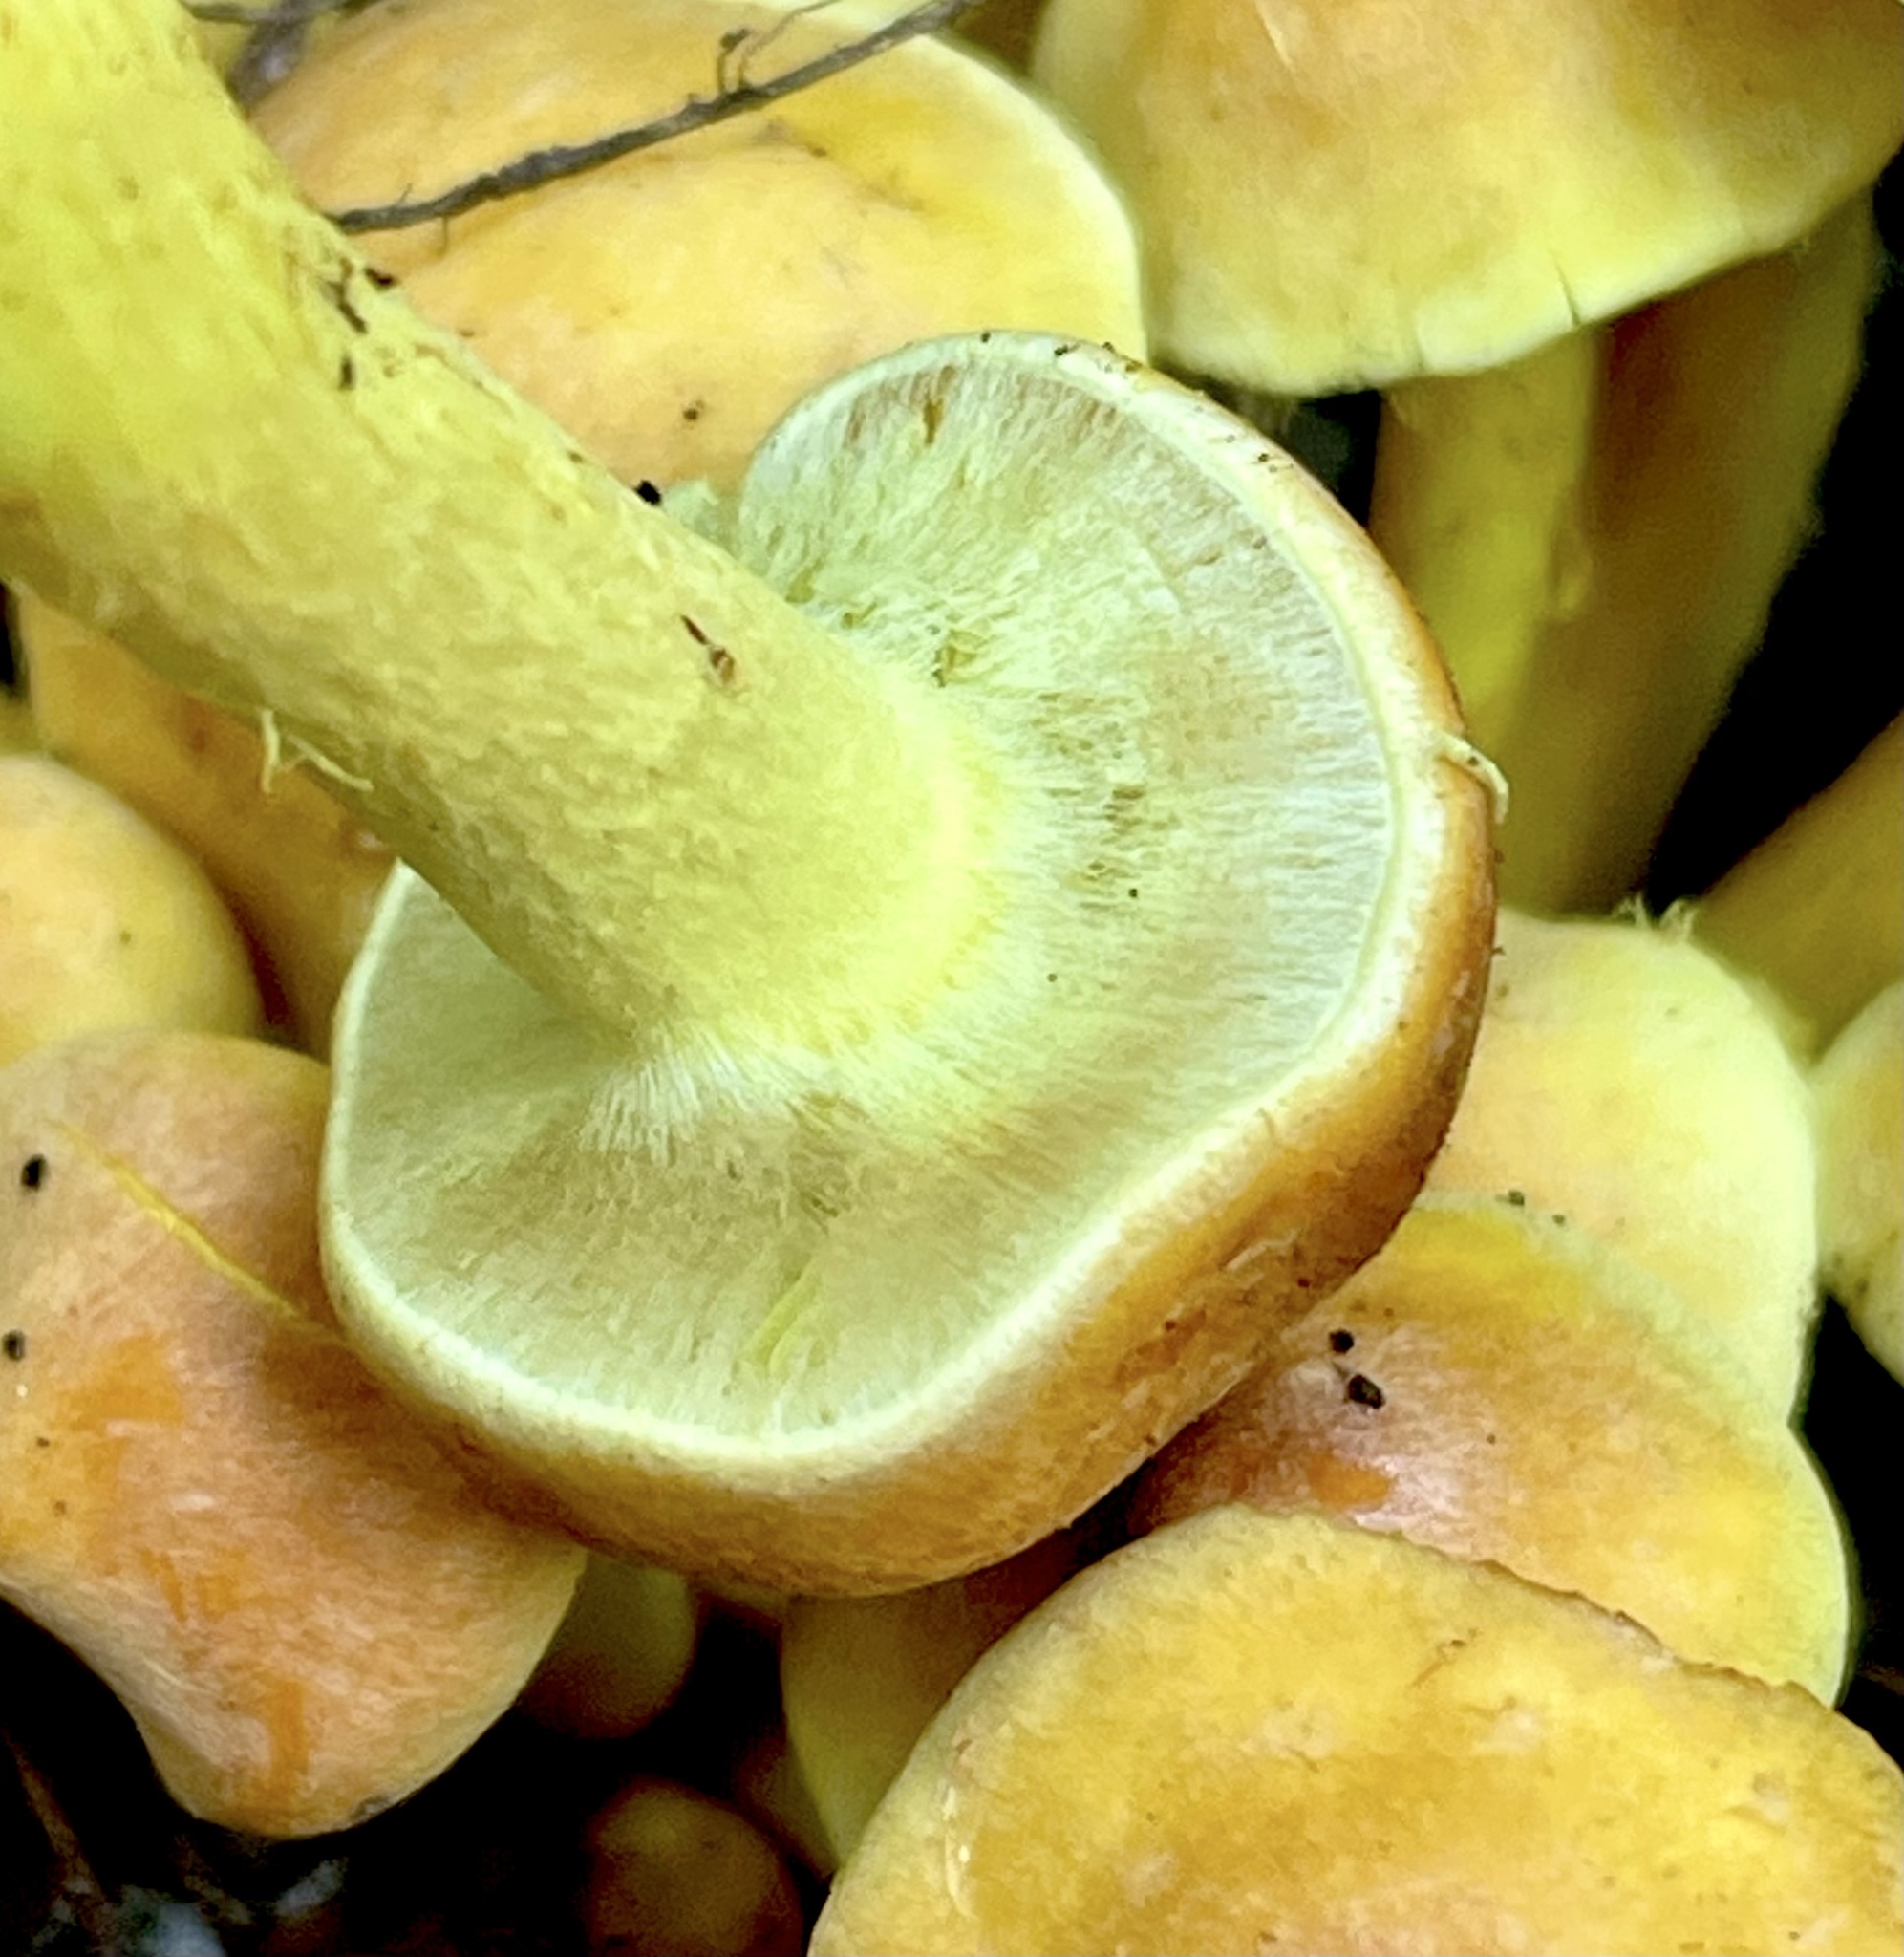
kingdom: Fungi
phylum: Basidiomycota
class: Agaricomycetes
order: Agaricales
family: Strophariaceae
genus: Hypholoma
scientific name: Hypholoma fasciculare
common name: Sulphur tuft
